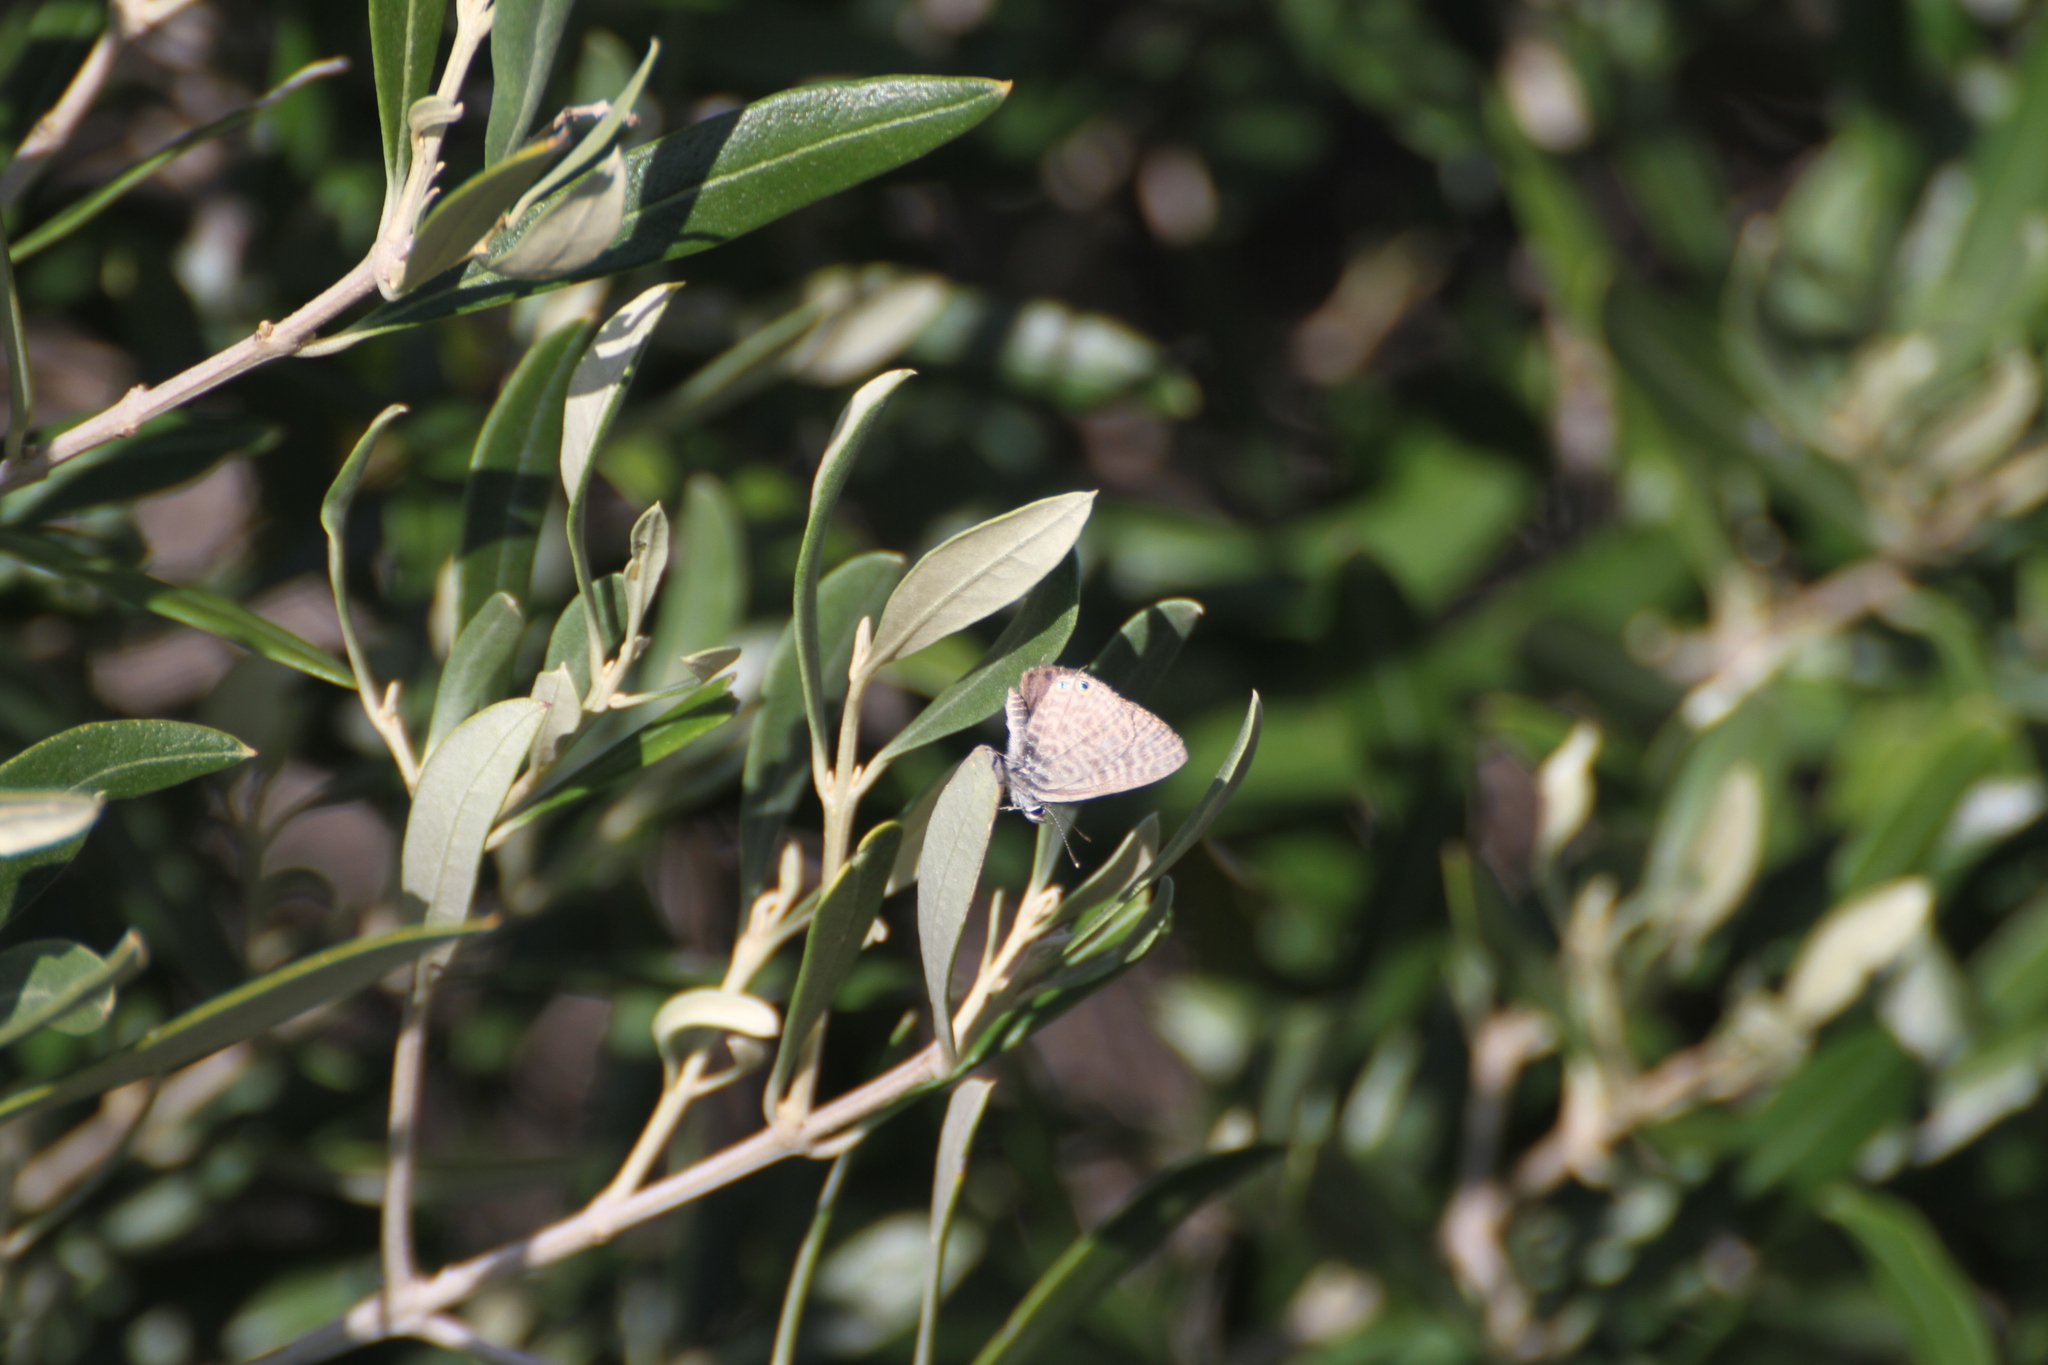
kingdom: Animalia
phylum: Arthropoda
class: Insecta
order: Lepidoptera
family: Lycaenidae
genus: Leptotes
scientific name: Leptotes pirithous
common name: Lang's short-tailed blue
